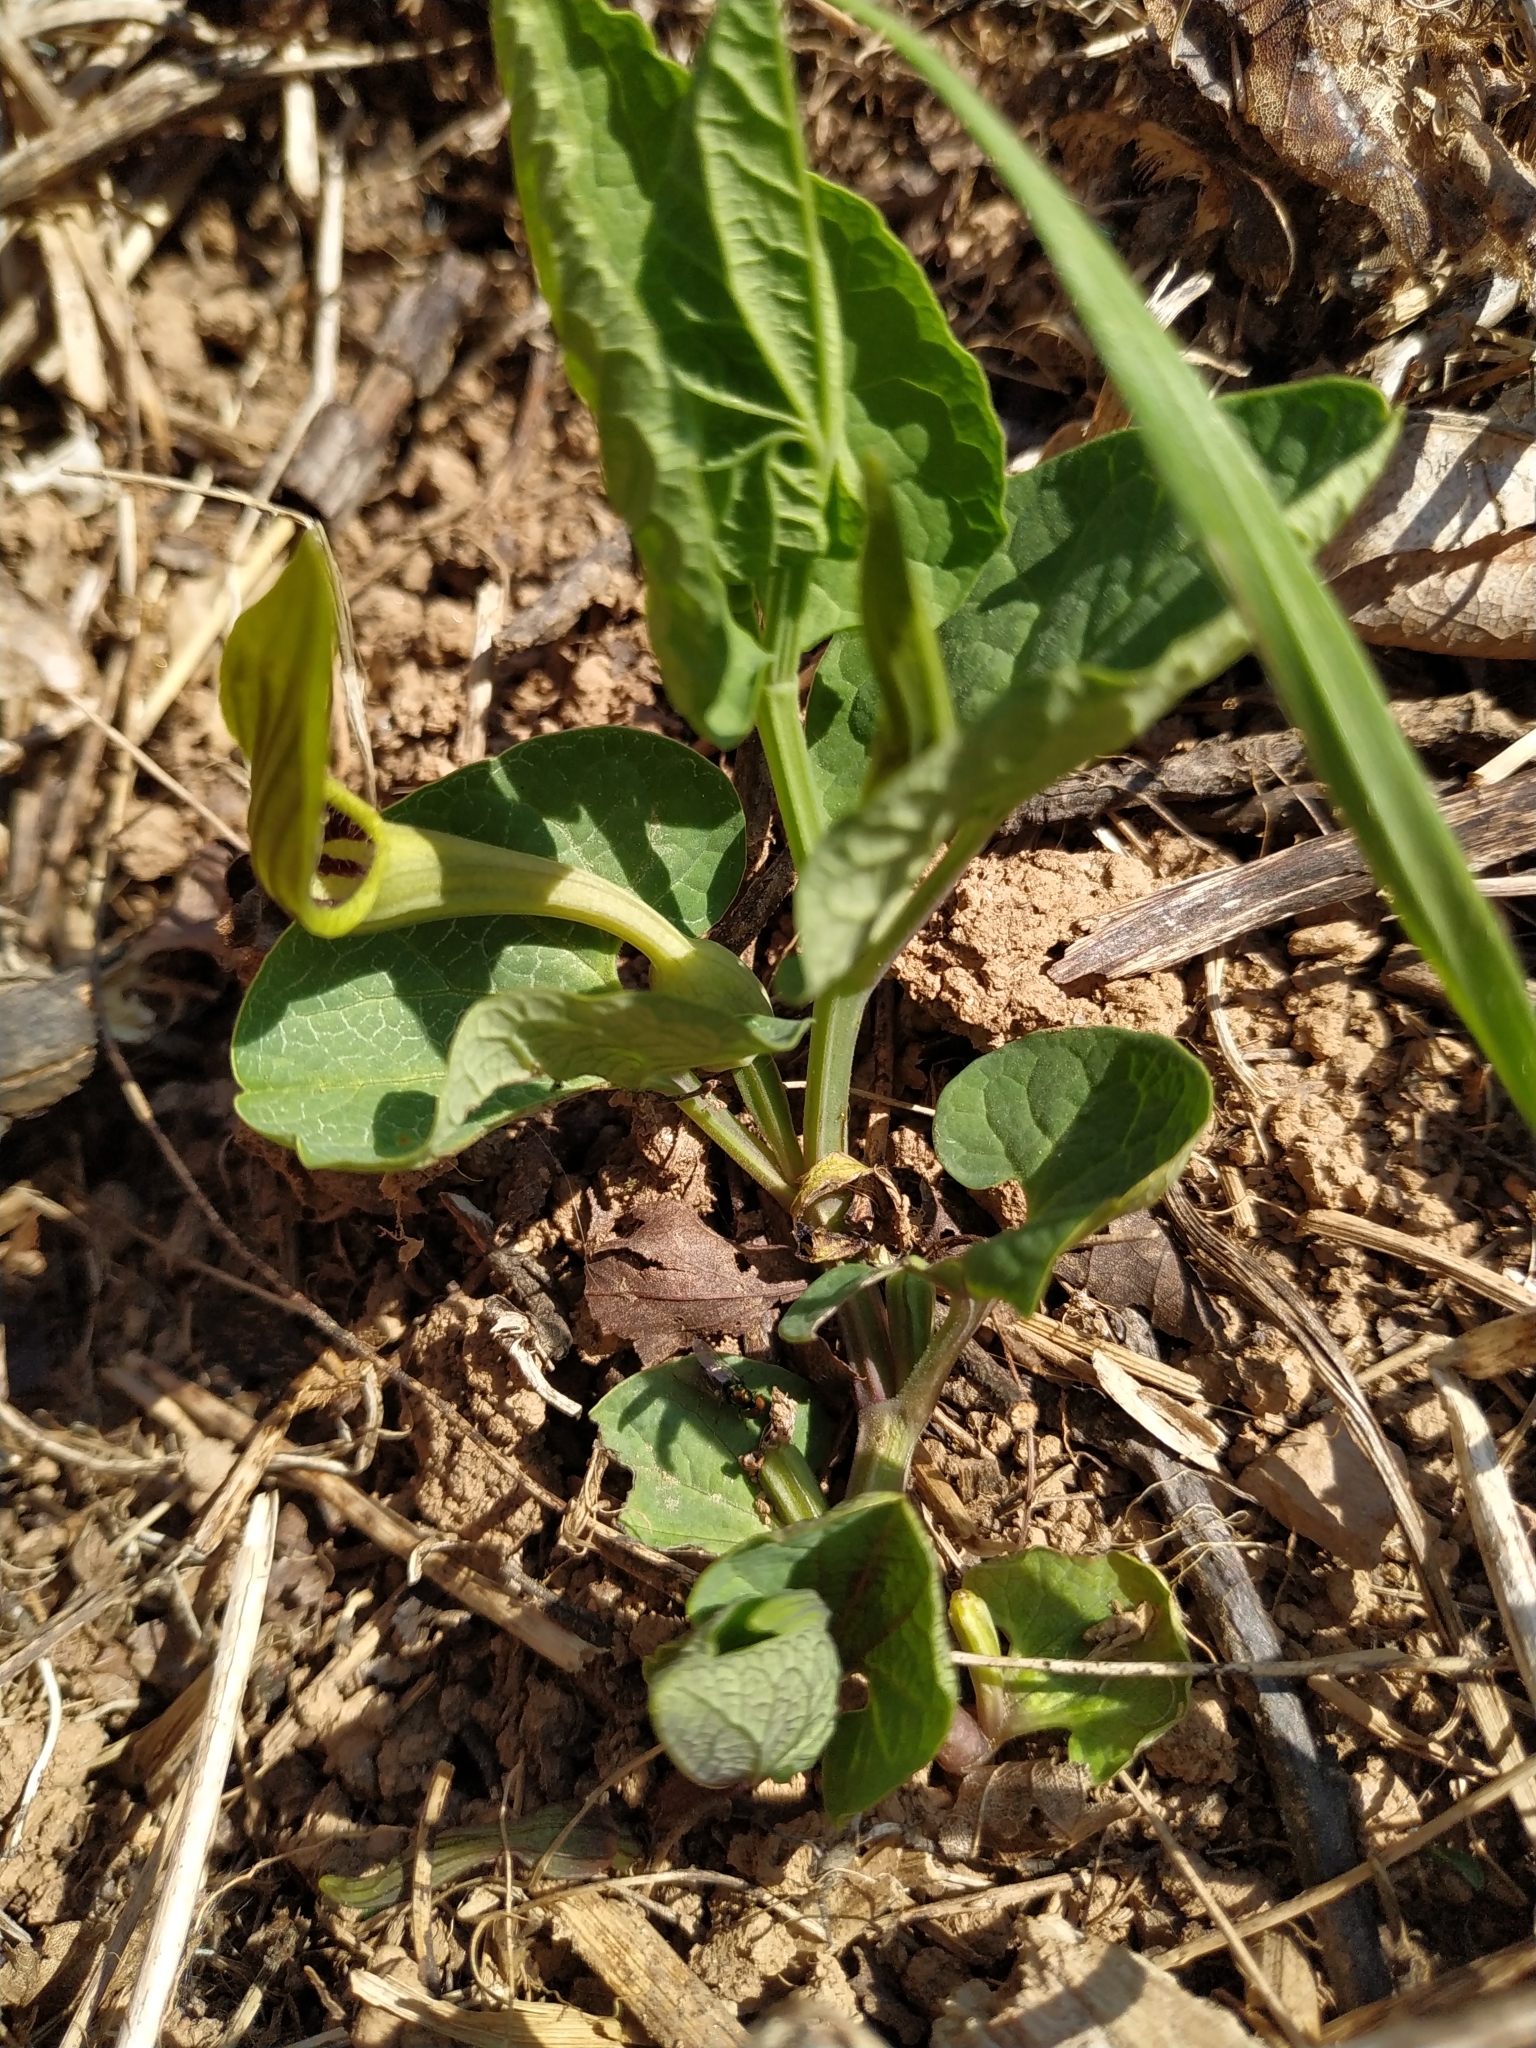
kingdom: Plantae
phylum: Tracheophyta
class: Magnoliopsida
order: Piperales
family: Aristolochiaceae
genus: Aristolochia
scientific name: Aristolochia pallida
